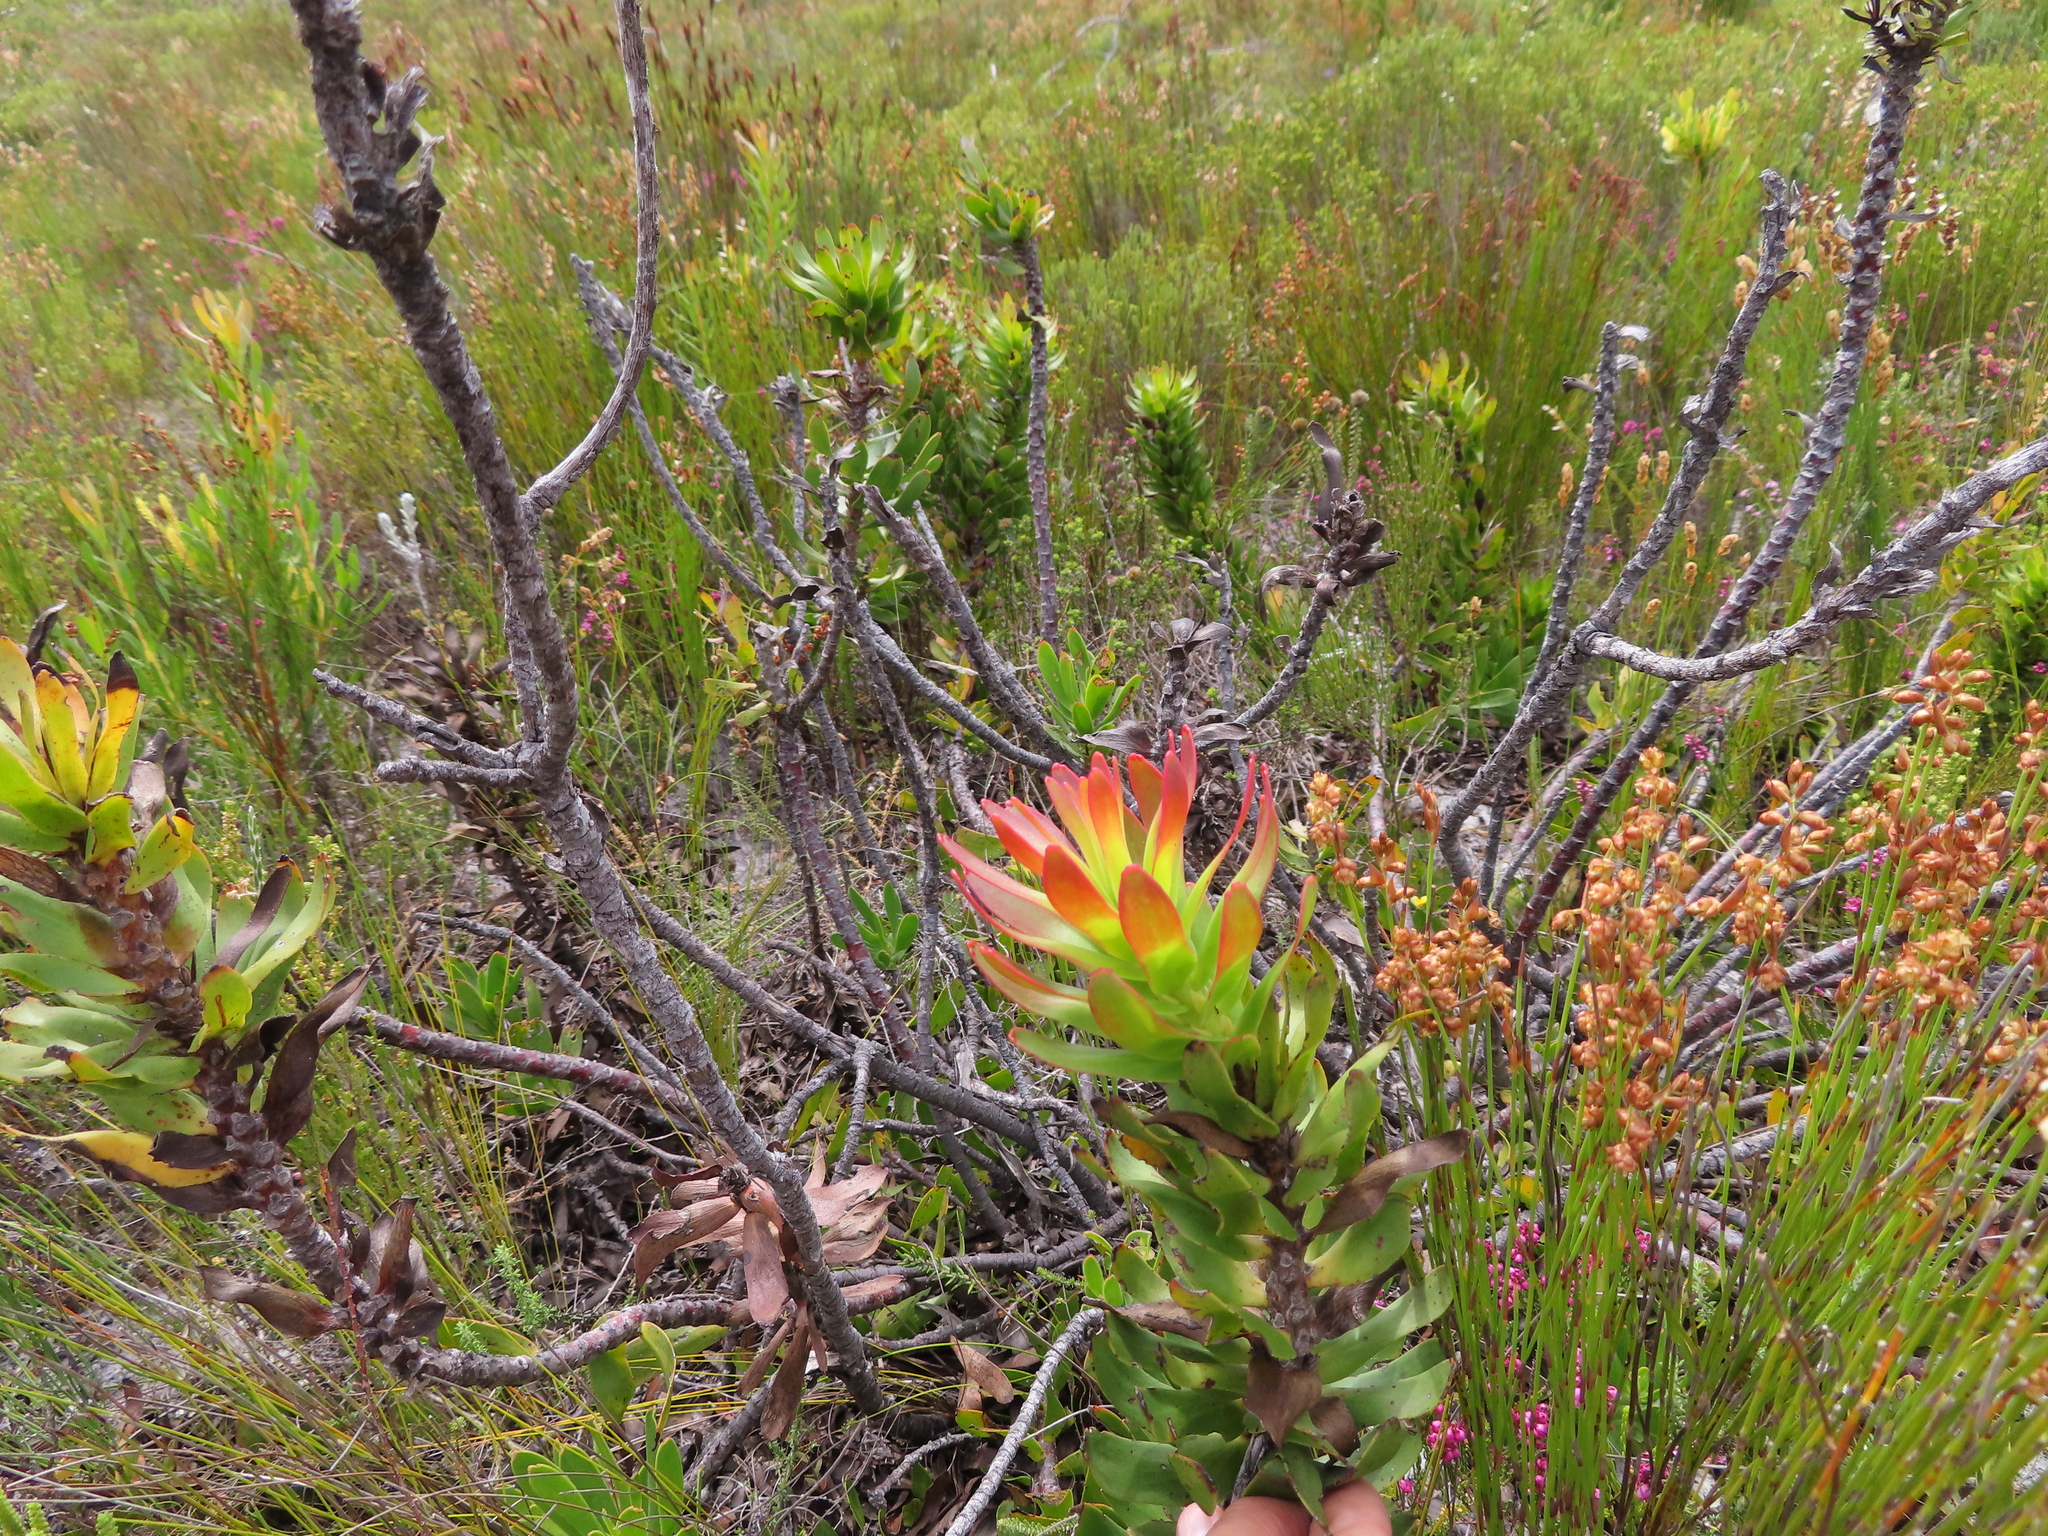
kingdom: Plantae
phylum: Tracheophyta
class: Magnoliopsida
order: Proteales
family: Proteaceae
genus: Mimetes
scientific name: Mimetes cucullatus
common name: Common pagoda
